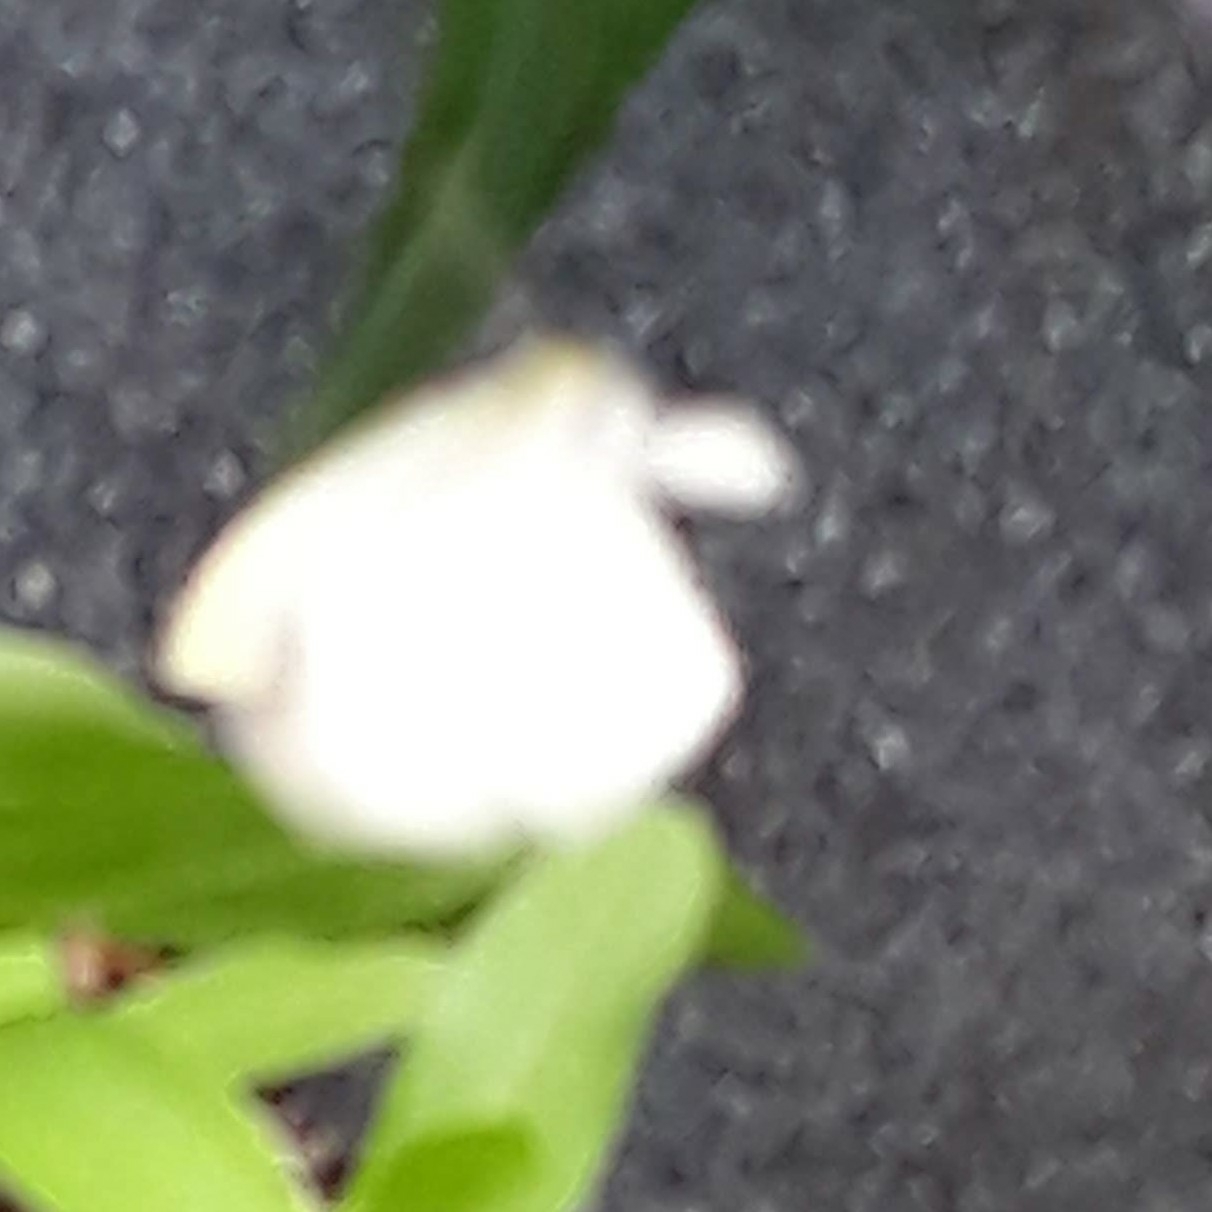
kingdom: Animalia
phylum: Arthropoda
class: Insecta
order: Lepidoptera
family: Pieridae
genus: Pieris
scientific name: Pieris rapae
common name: Small white
